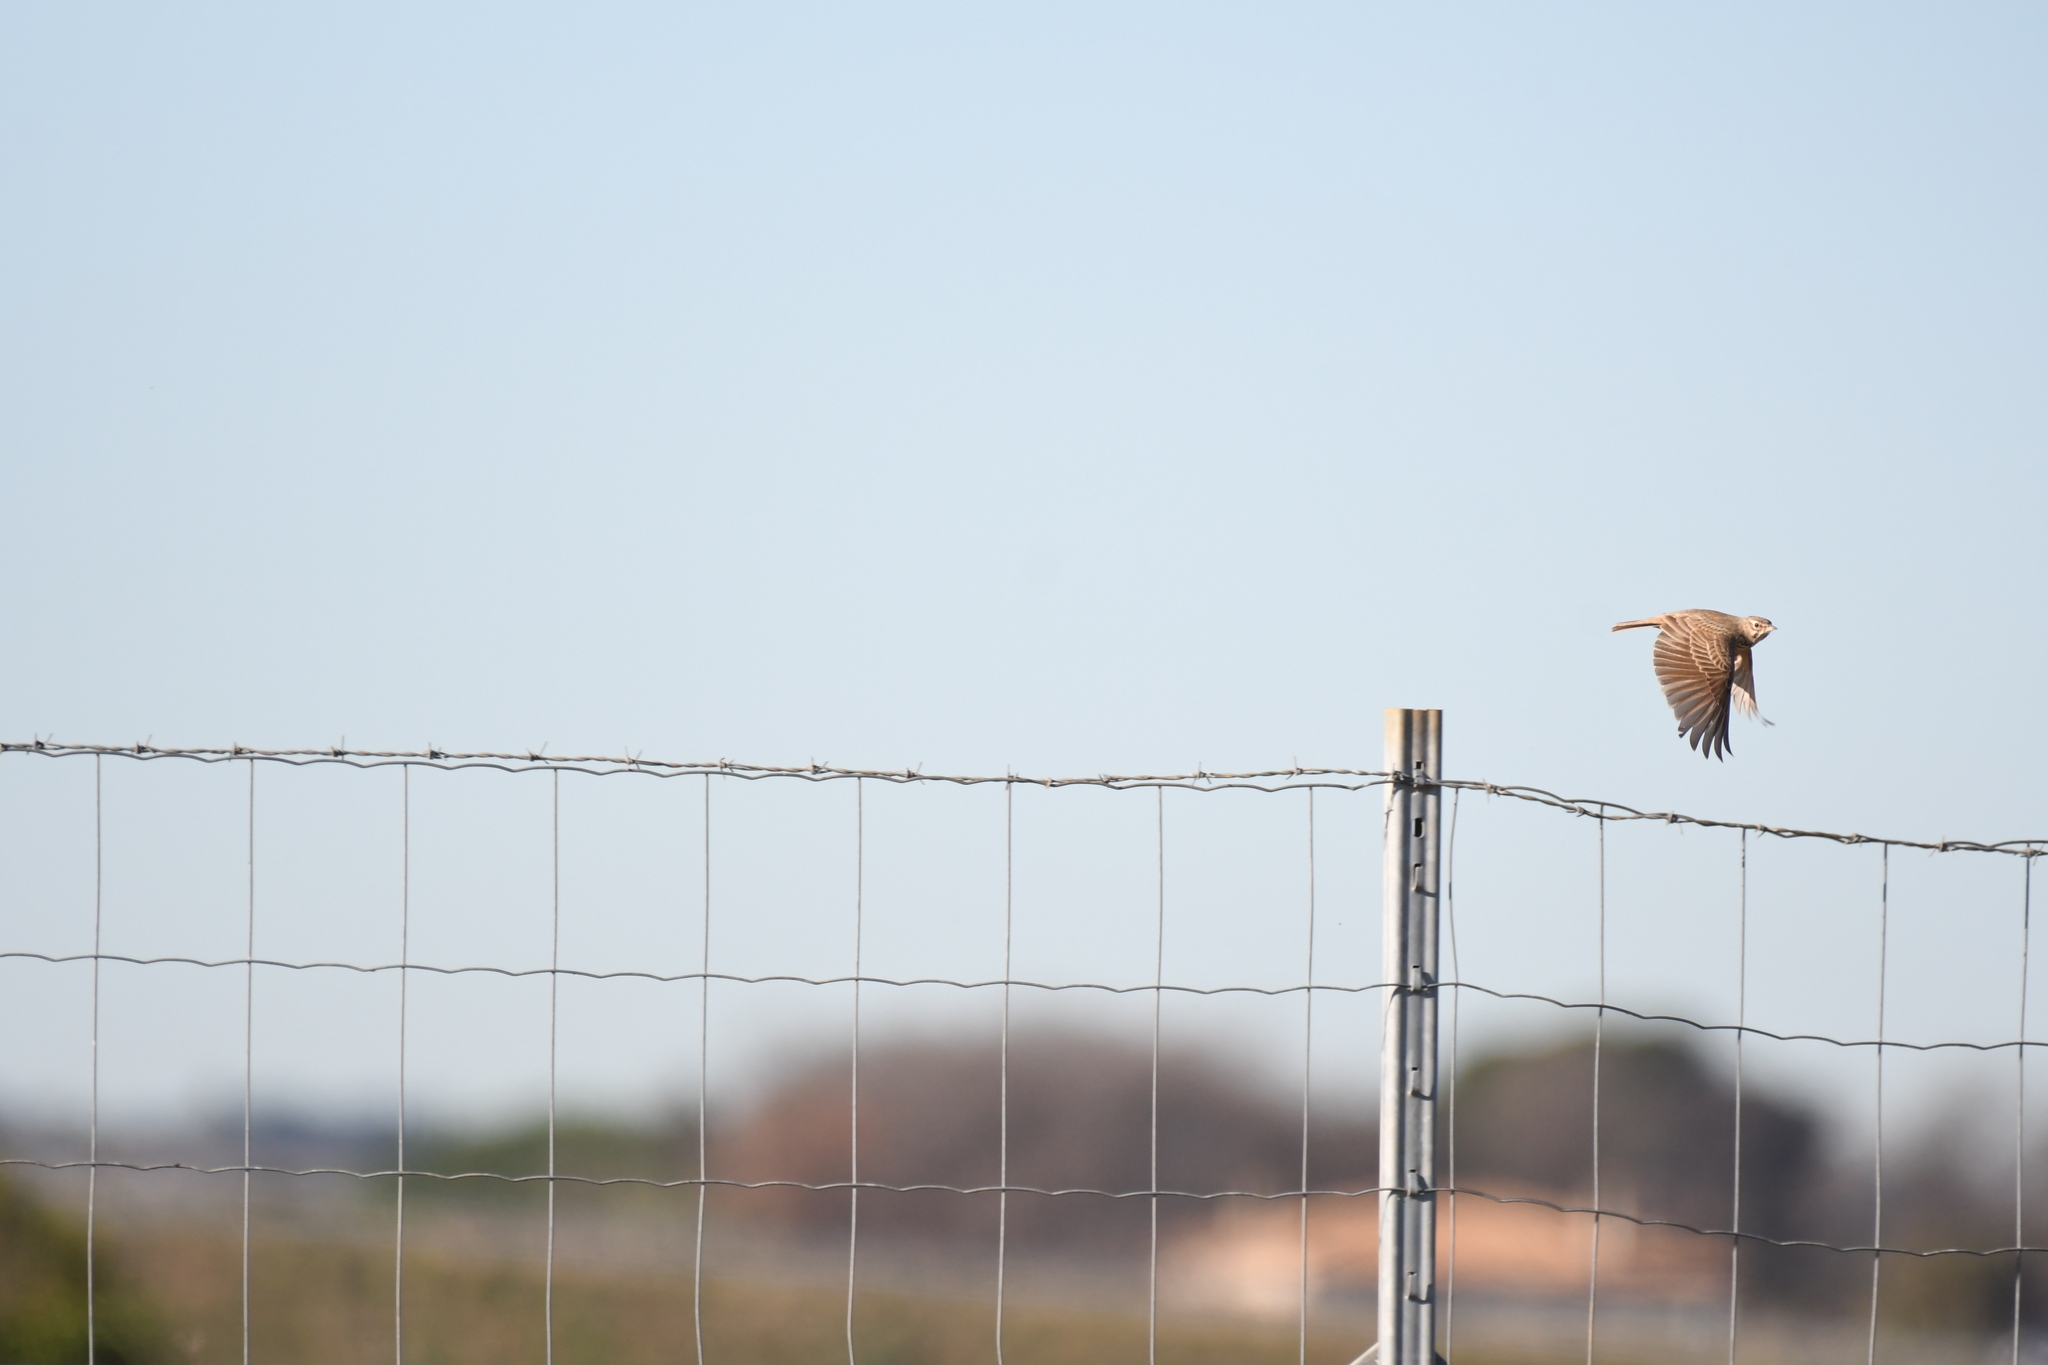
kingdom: Animalia
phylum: Chordata
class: Aves
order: Passeriformes
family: Alaudidae
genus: Galerida
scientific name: Galerida cristata
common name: Crested lark
